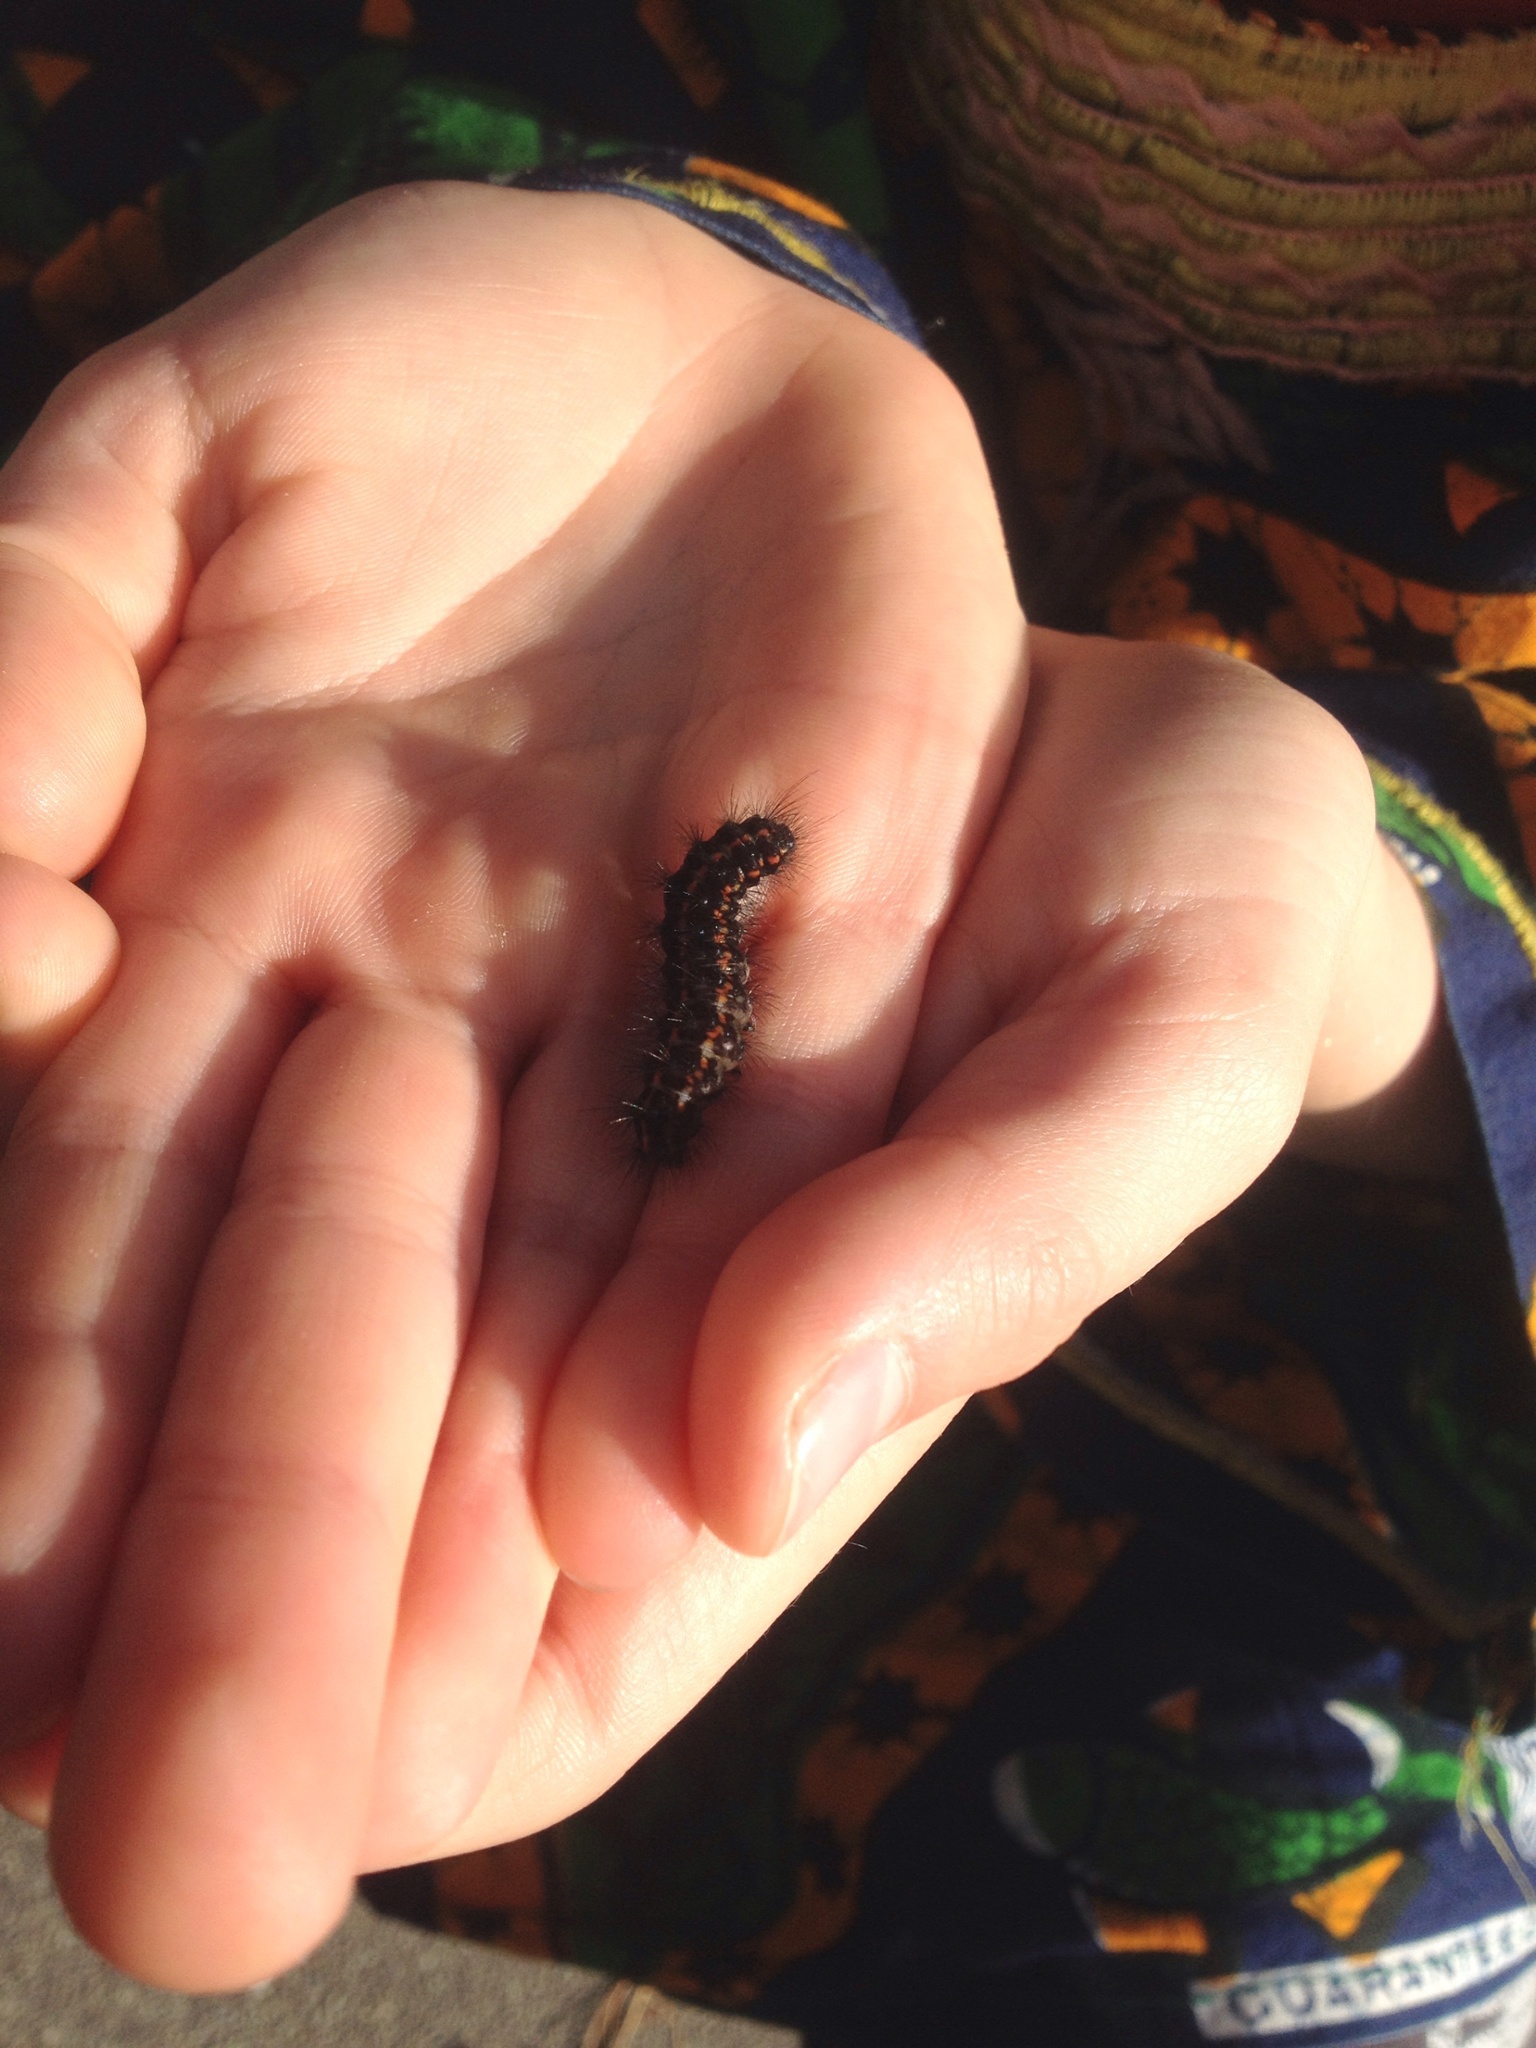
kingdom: Animalia
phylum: Arthropoda
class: Insecta
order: Lepidoptera
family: Erebidae
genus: Nyctemera
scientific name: Nyctemera annulatum
